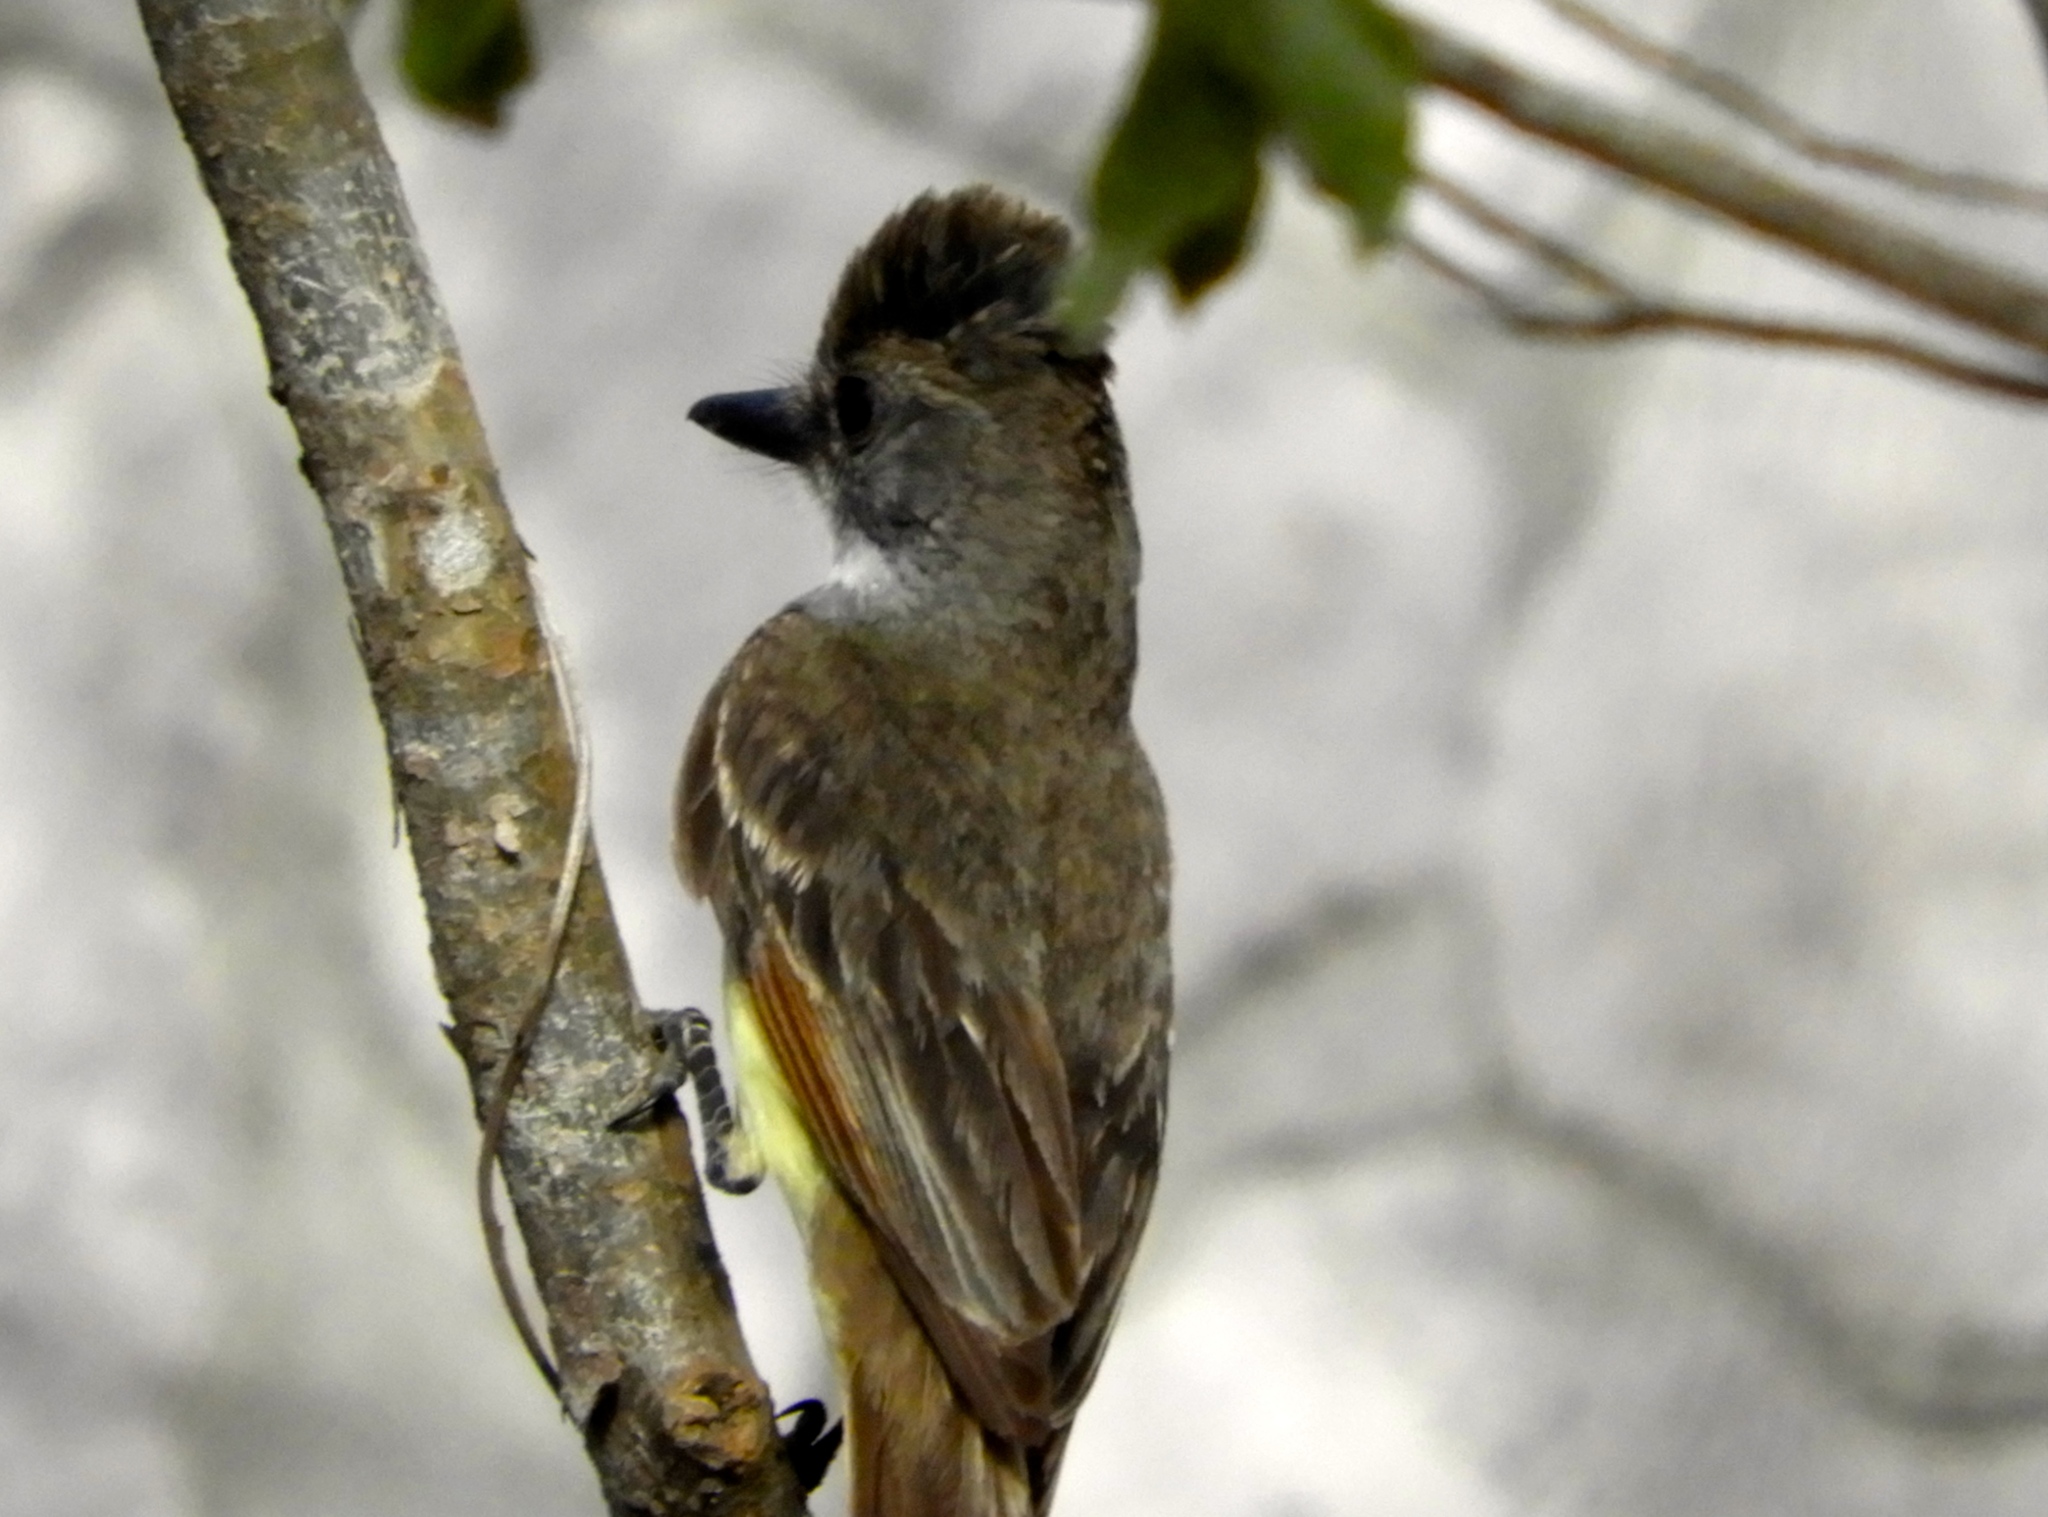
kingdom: Animalia
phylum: Chordata
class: Aves
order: Passeriformes
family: Tyrannidae
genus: Myiarchus
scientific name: Myiarchus
